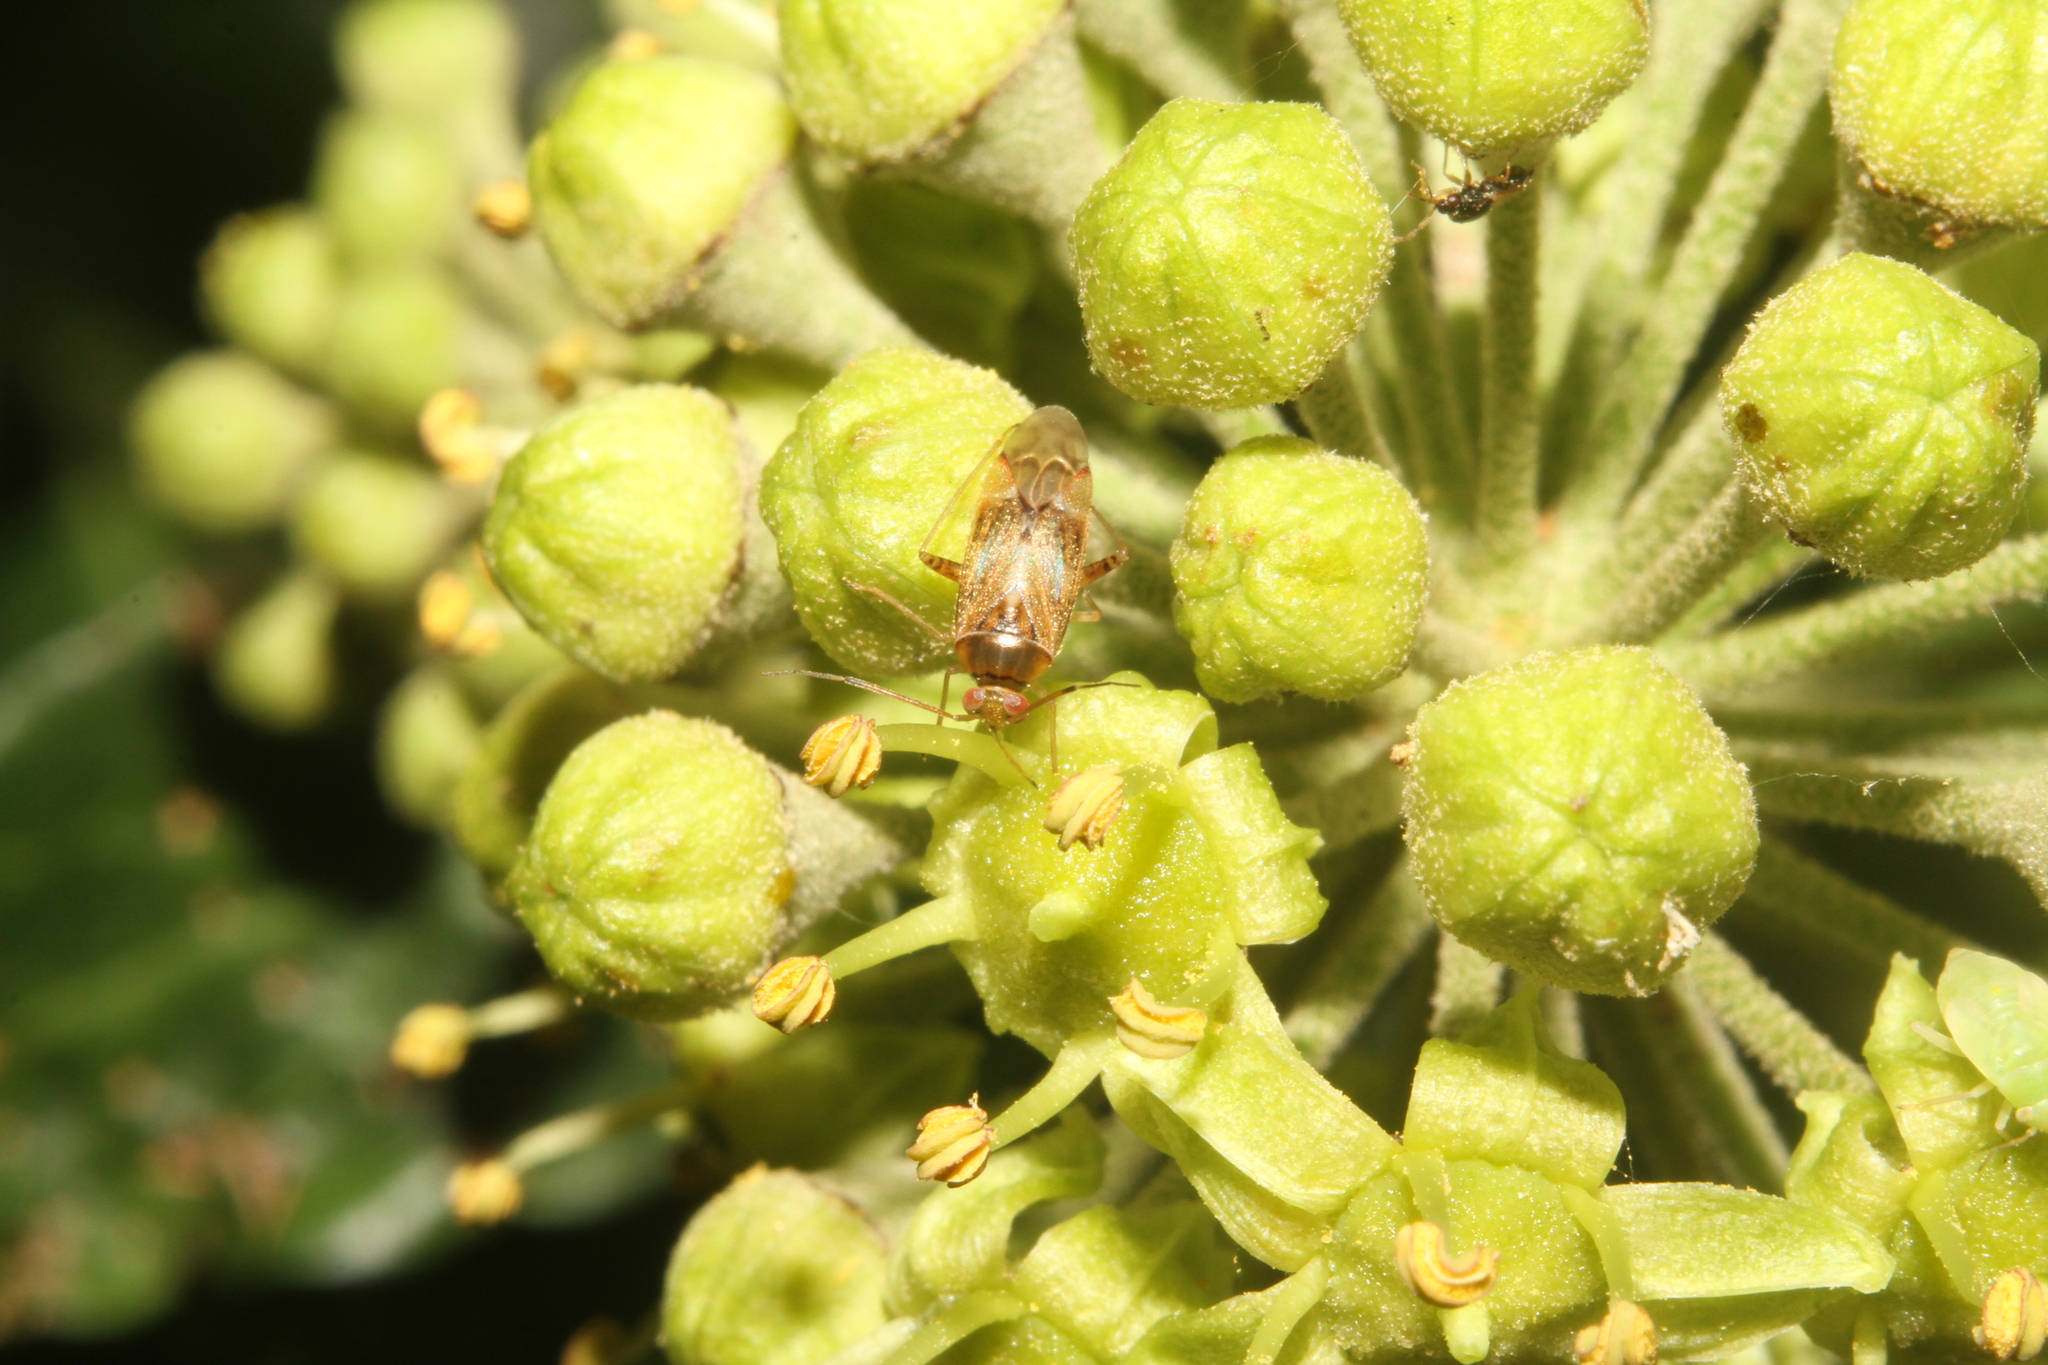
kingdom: Animalia
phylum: Arthropoda
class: Insecta
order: Hemiptera
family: Miridae
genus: Pinalitus
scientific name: Pinalitus cervinus
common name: Plant bug
